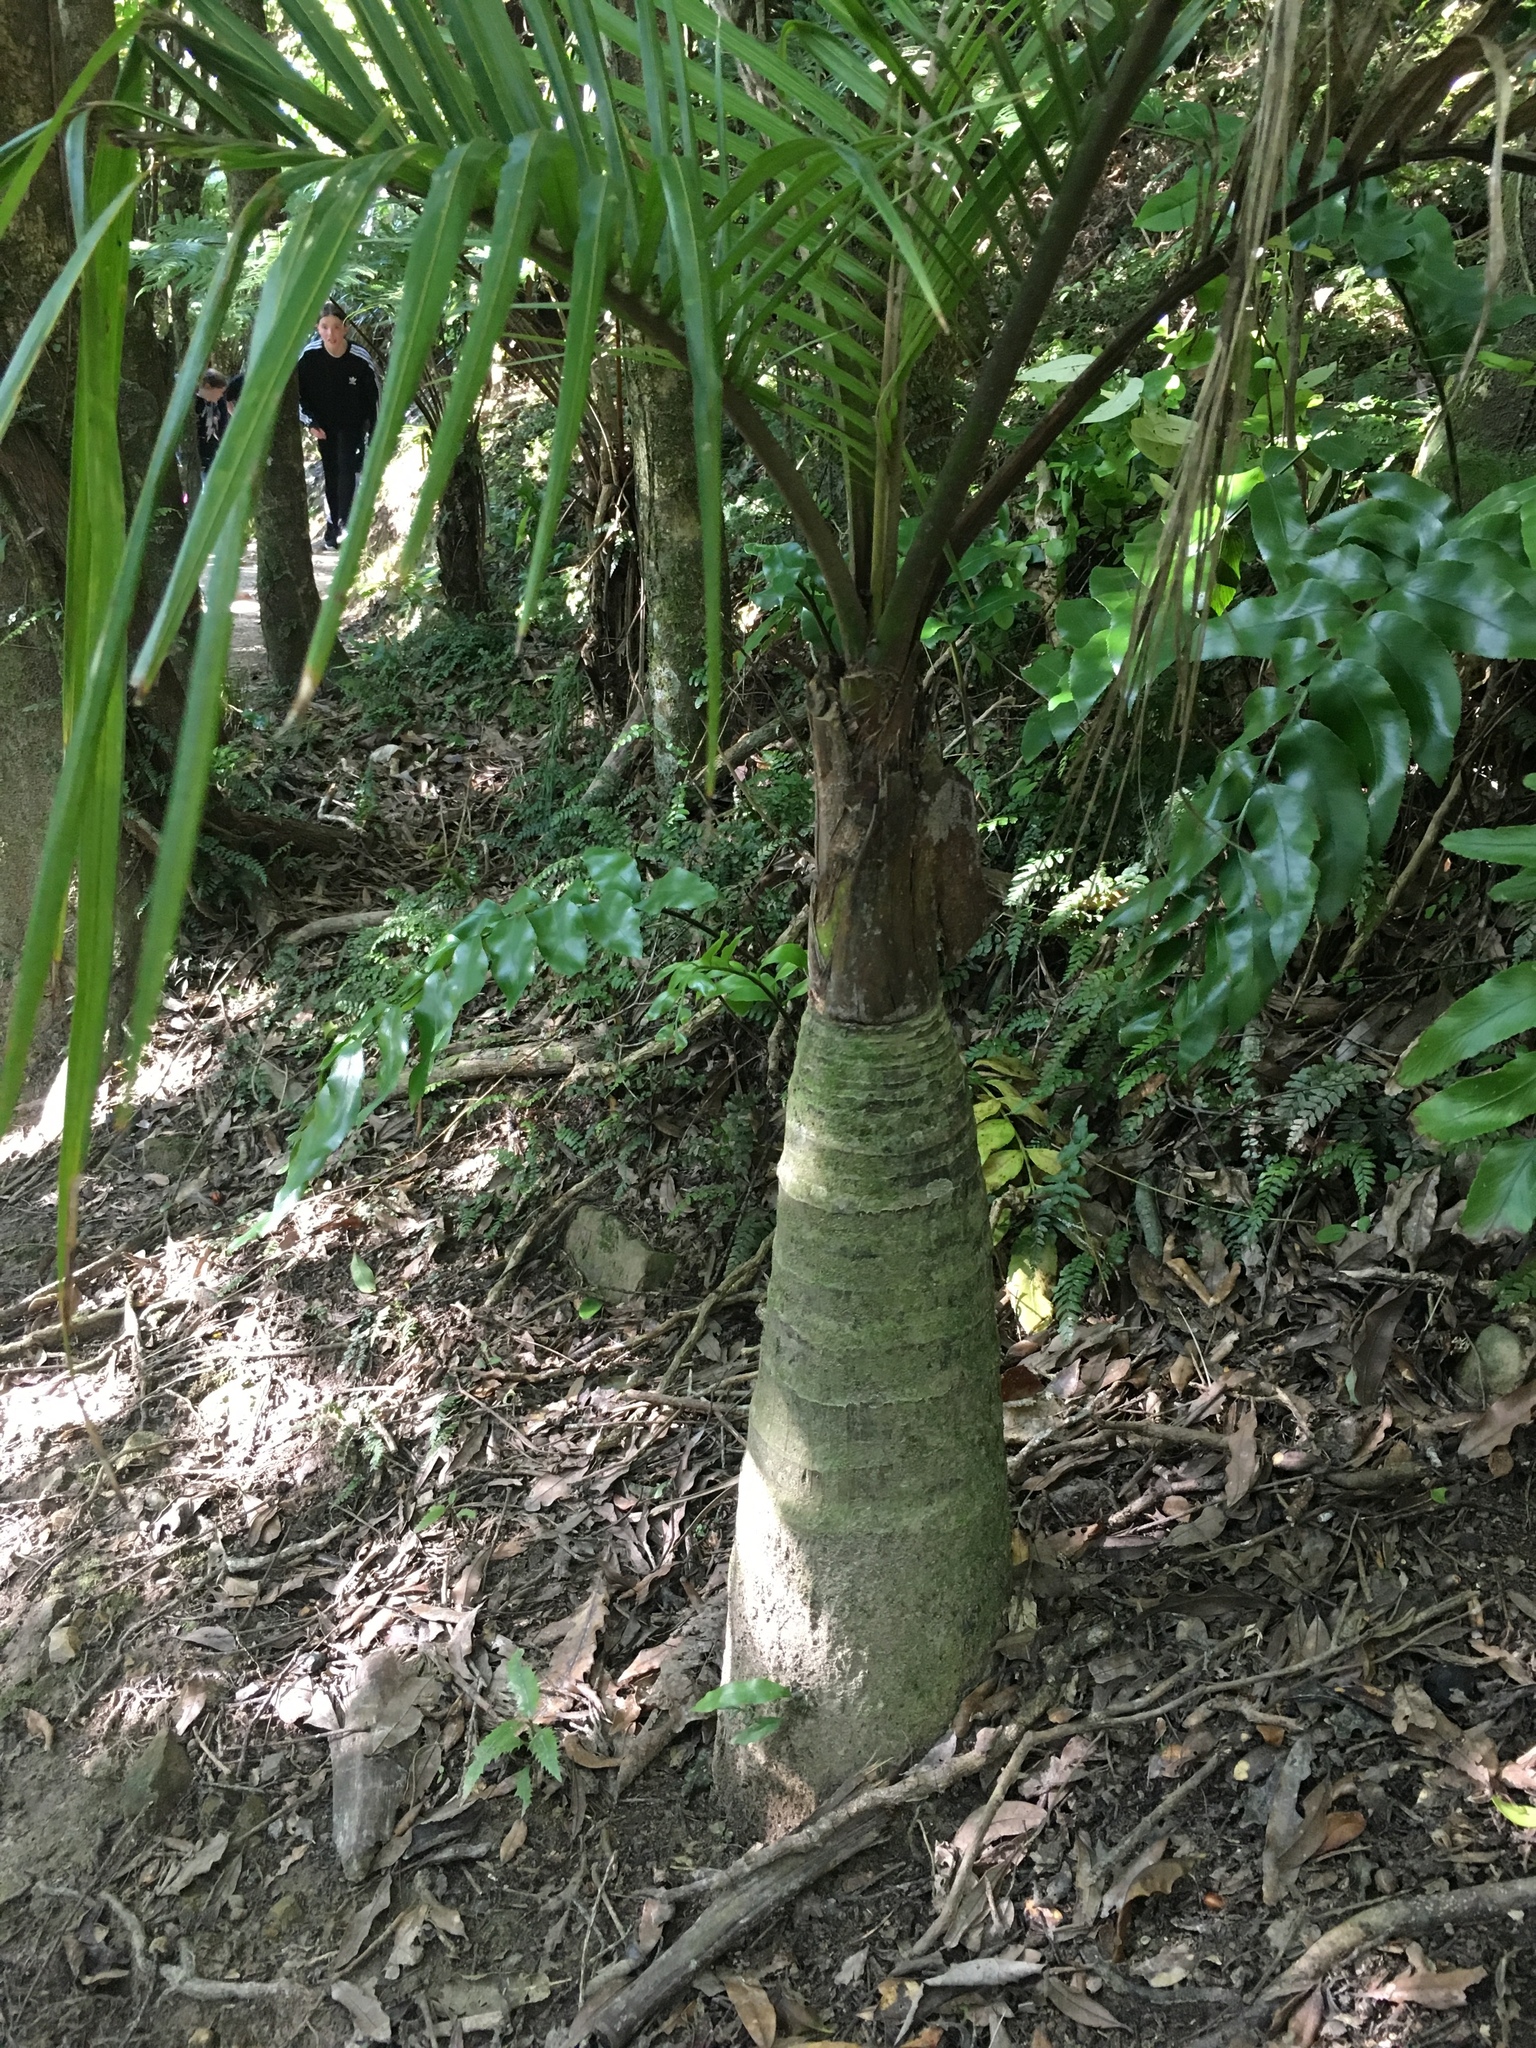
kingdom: Plantae
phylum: Tracheophyta
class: Liliopsida
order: Arecales
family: Arecaceae
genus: Rhopalostylis
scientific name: Rhopalostylis sapida
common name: Feather-duster palm
